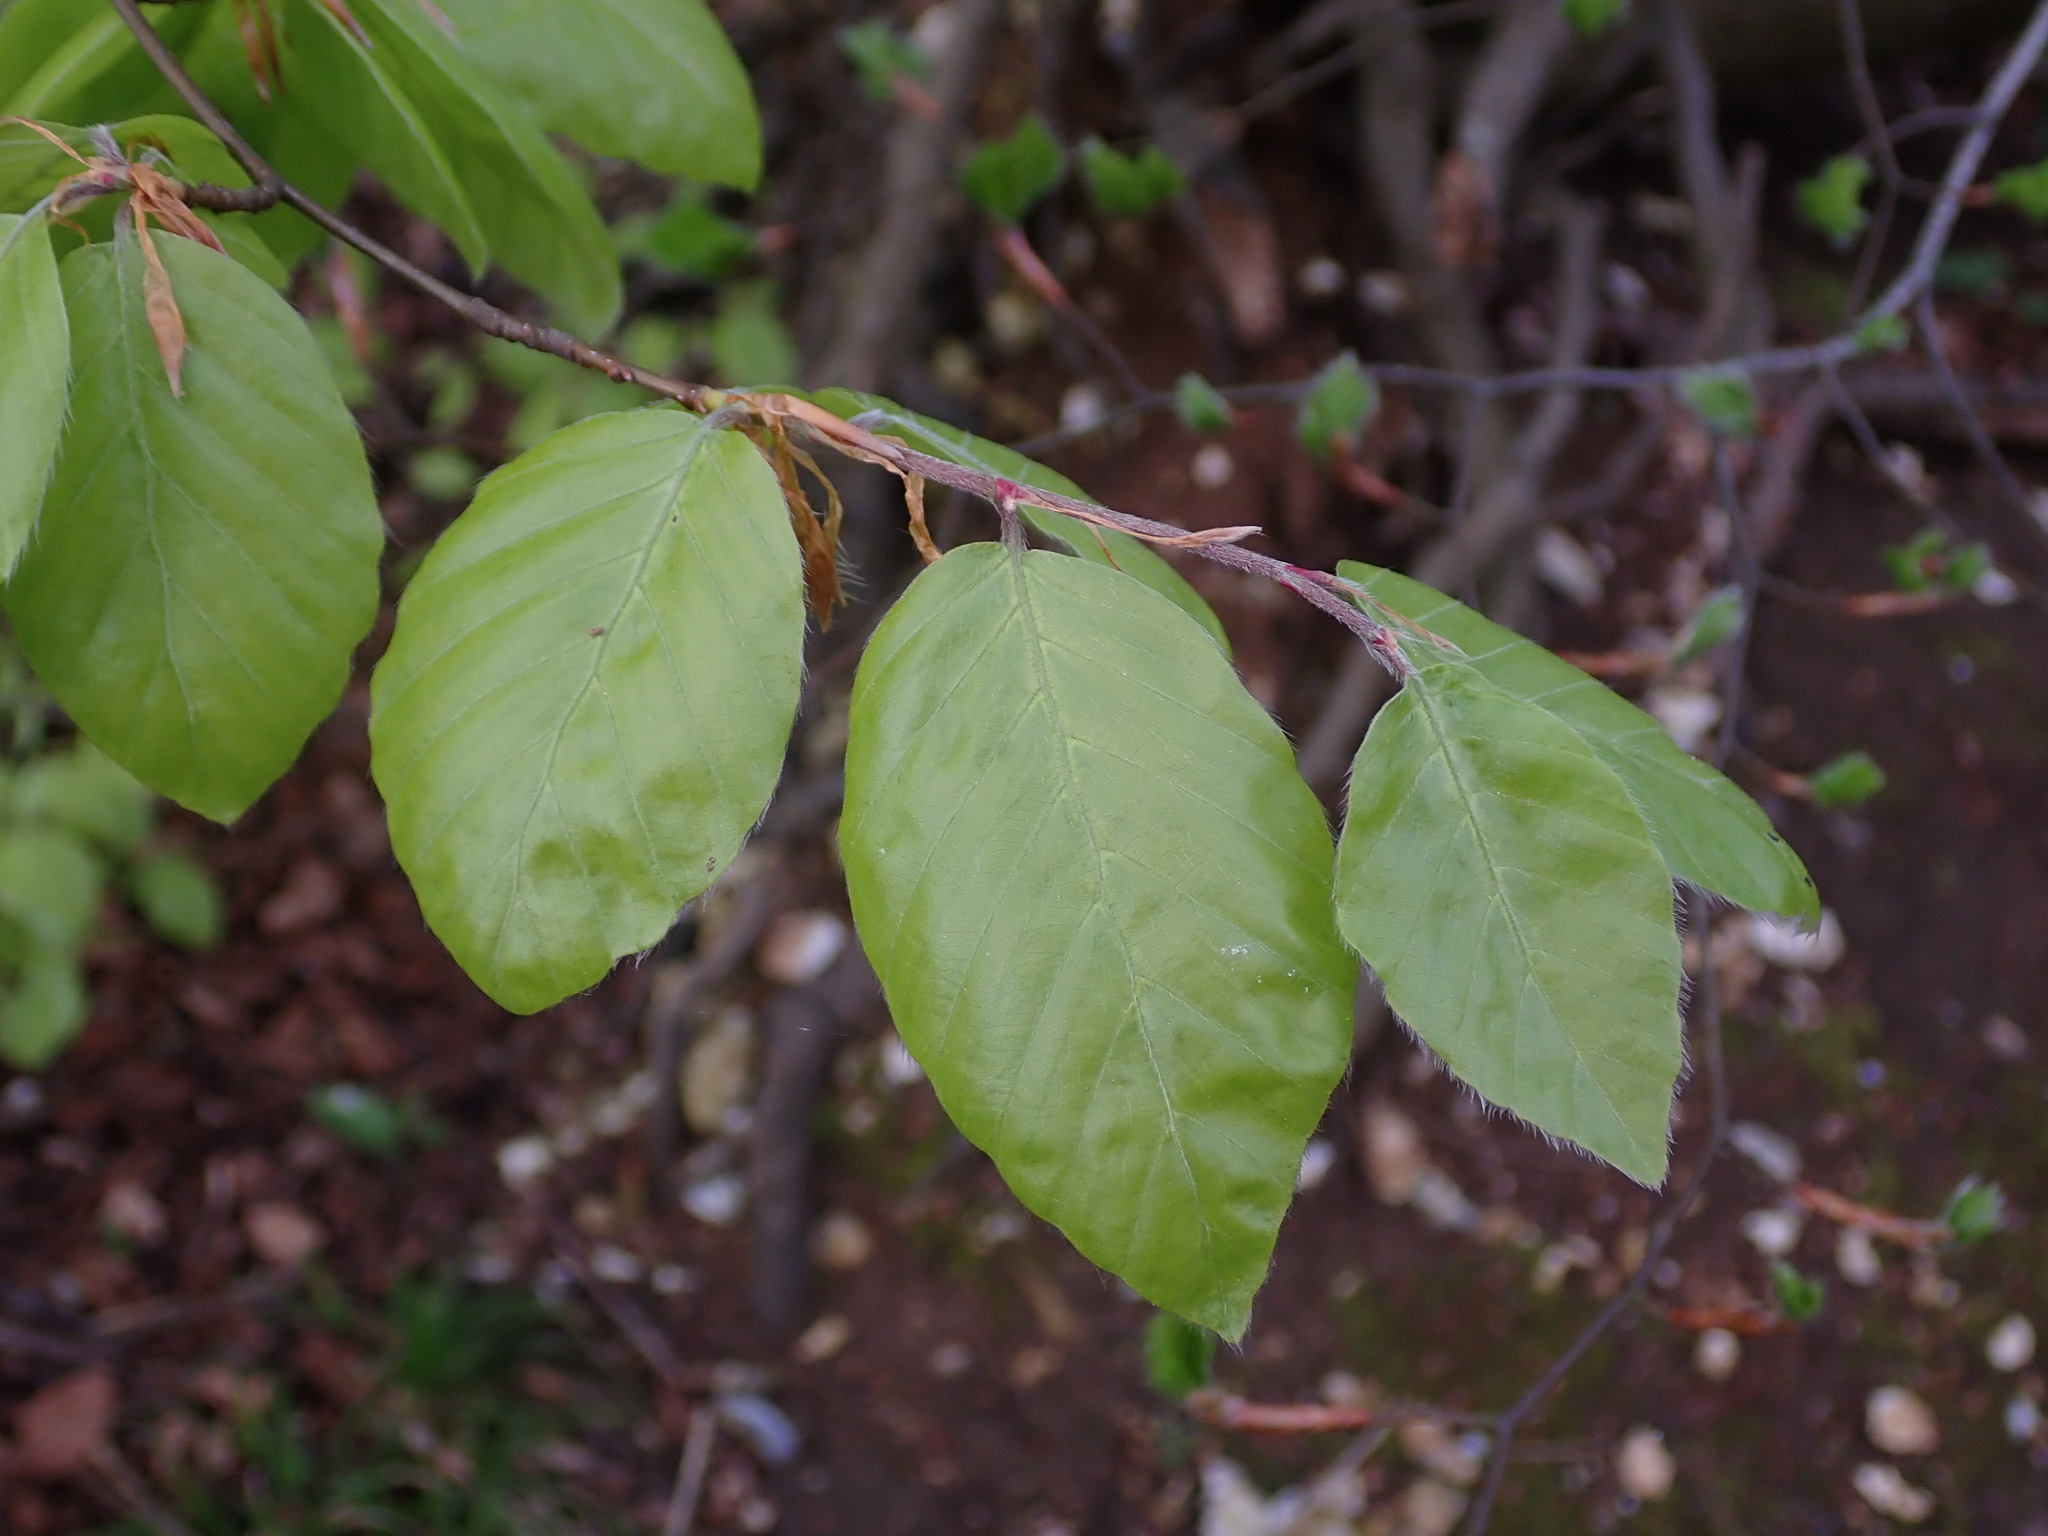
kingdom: Plantae
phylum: Tracheophyta
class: Magnoliopsida
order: Fagales
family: Fagaceae
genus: Fagus
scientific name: Fagus sylvatica
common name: Beech
